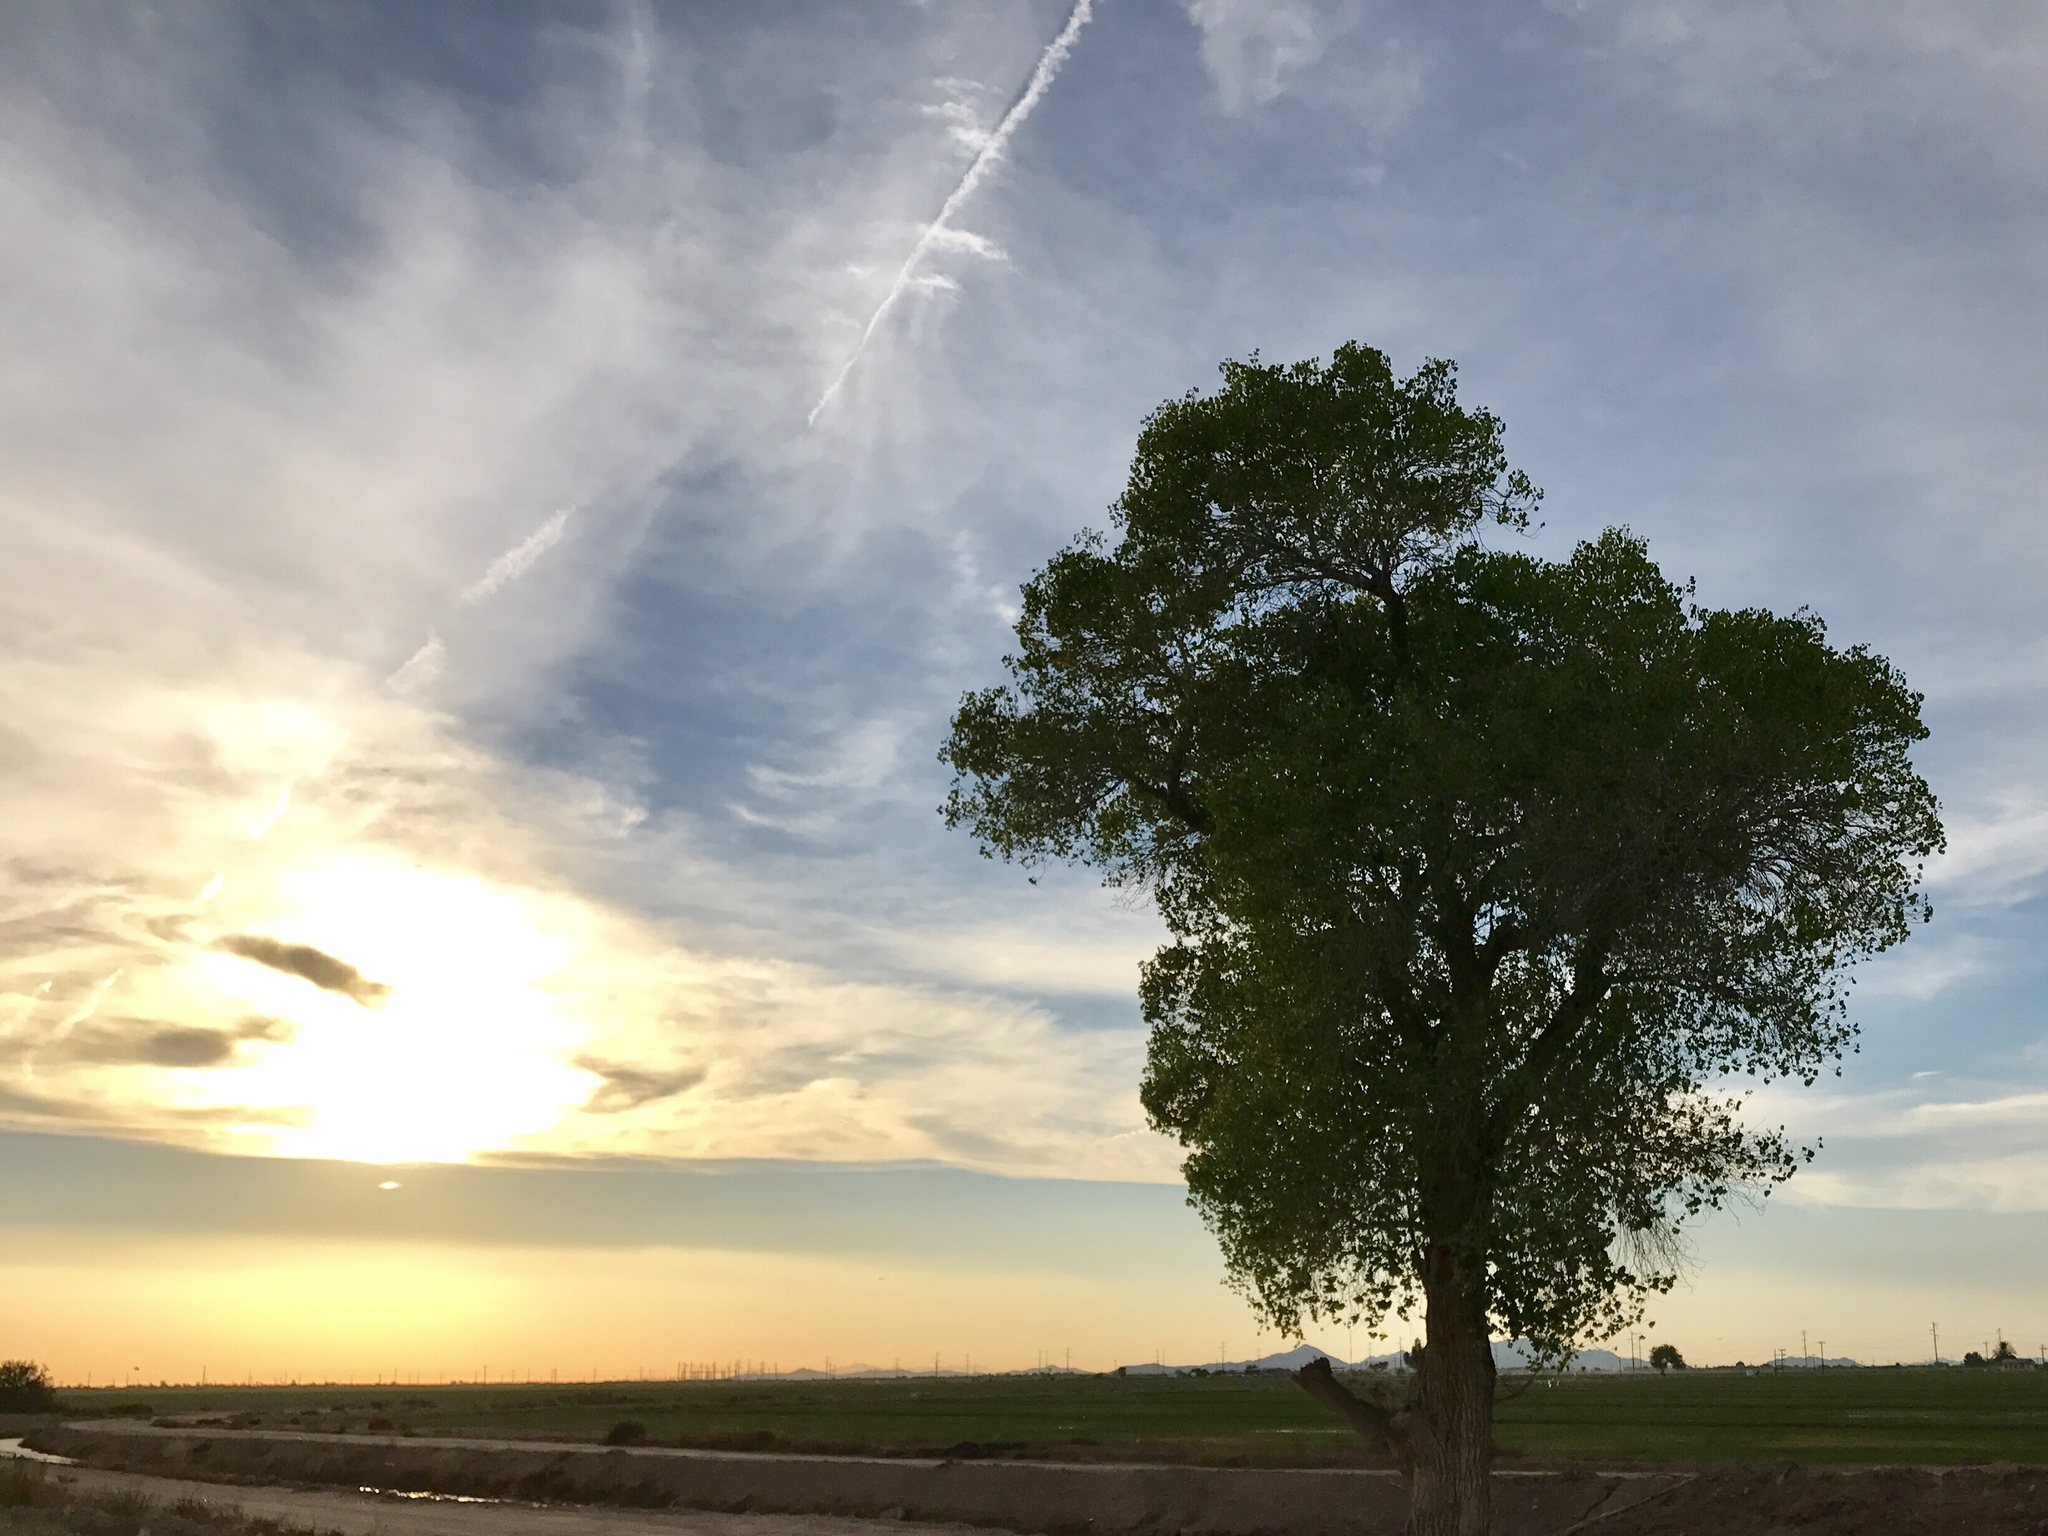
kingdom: Plantae
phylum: Tracheophyta
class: Magnoliopsida
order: Malpighiales
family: Salicaceae
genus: Populus
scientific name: Populus fremontii
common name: Fremont's cottonwood
